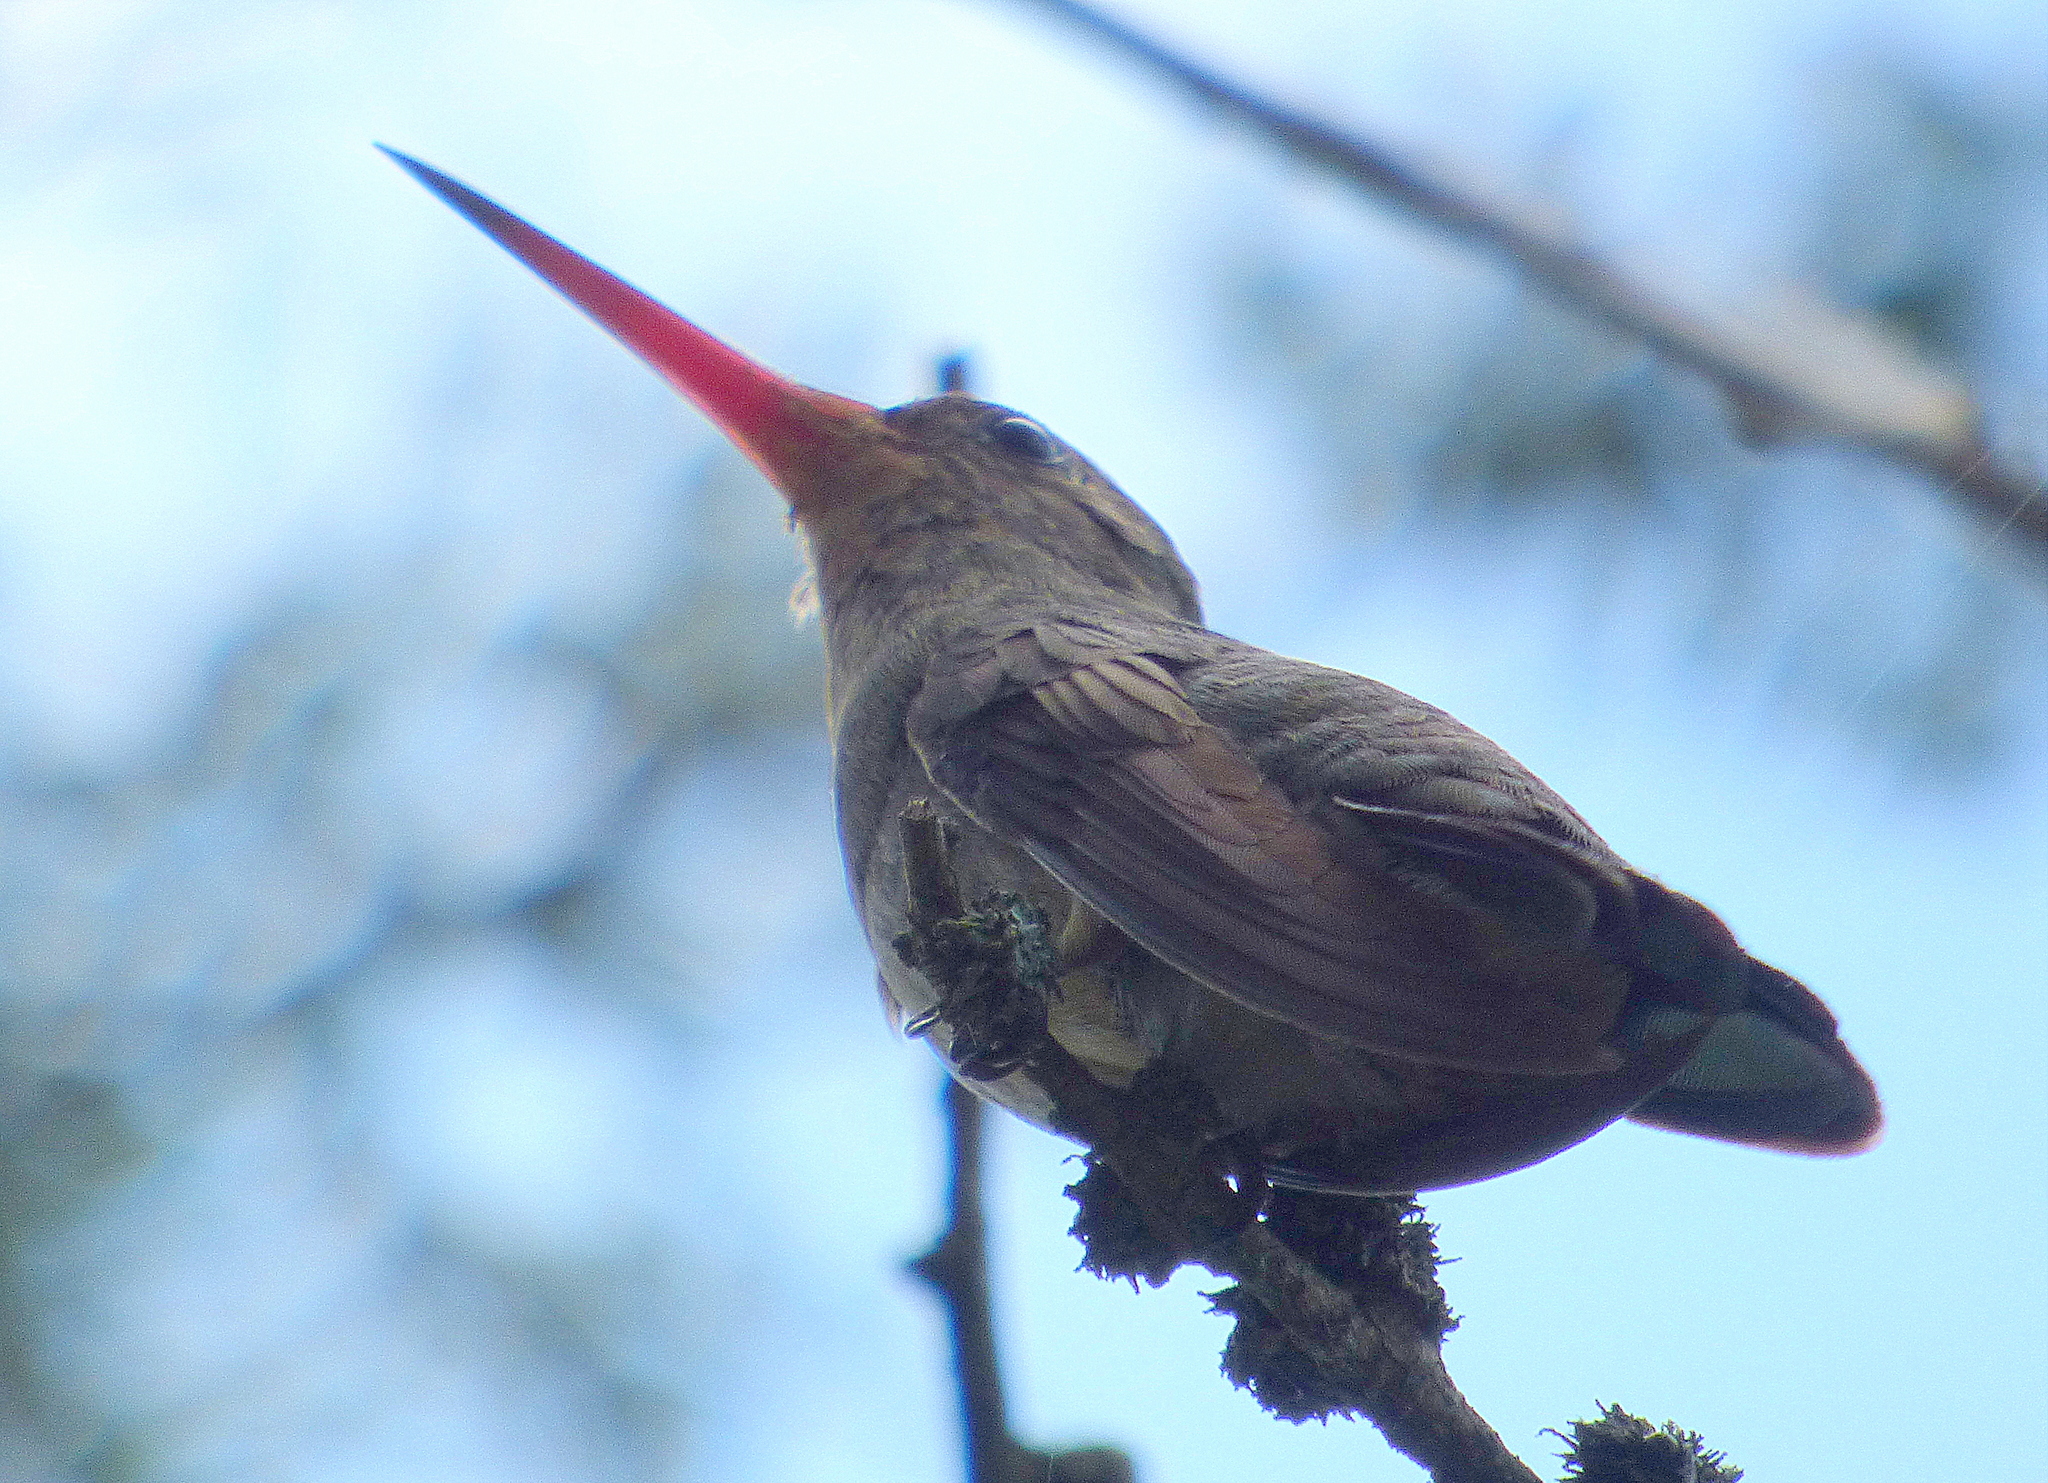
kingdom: Animalia
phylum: Chordata
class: Aves
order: Apodiformes
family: Trochilidae
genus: Hylocharis
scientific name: Hylocharis chrysura
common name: Gilded sapphire
